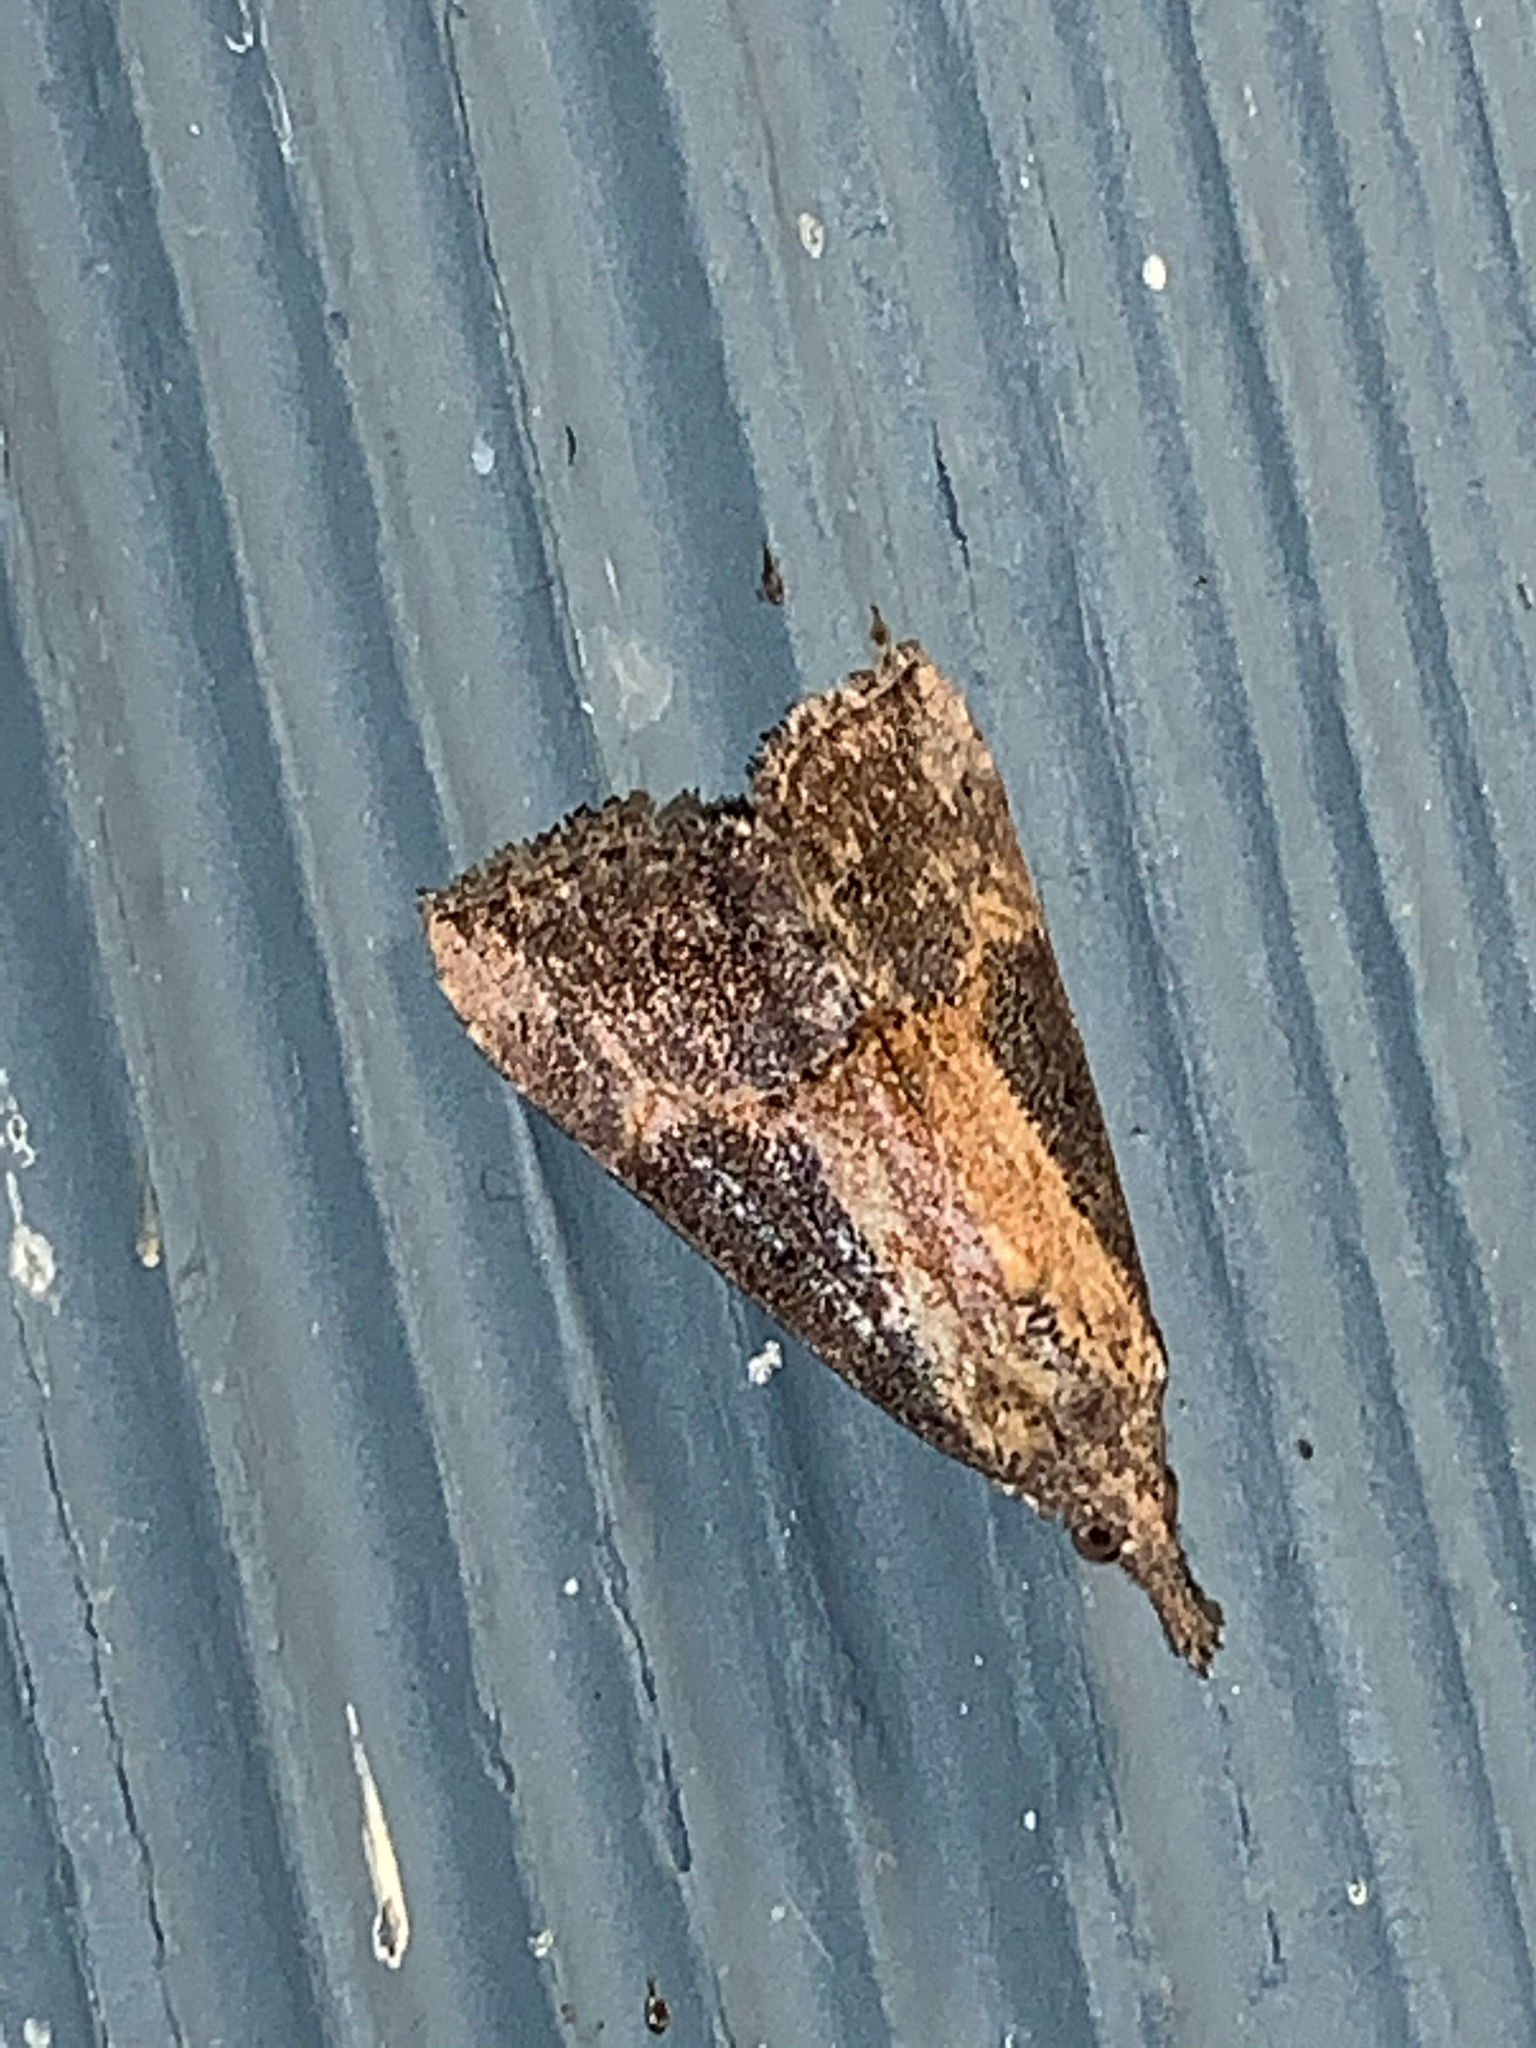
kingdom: Animalia
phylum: Arthropoda
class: Insecta
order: Lepidoptera
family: Erebidae
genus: Hypena
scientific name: Hypena scabra
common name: Green cloverworm
